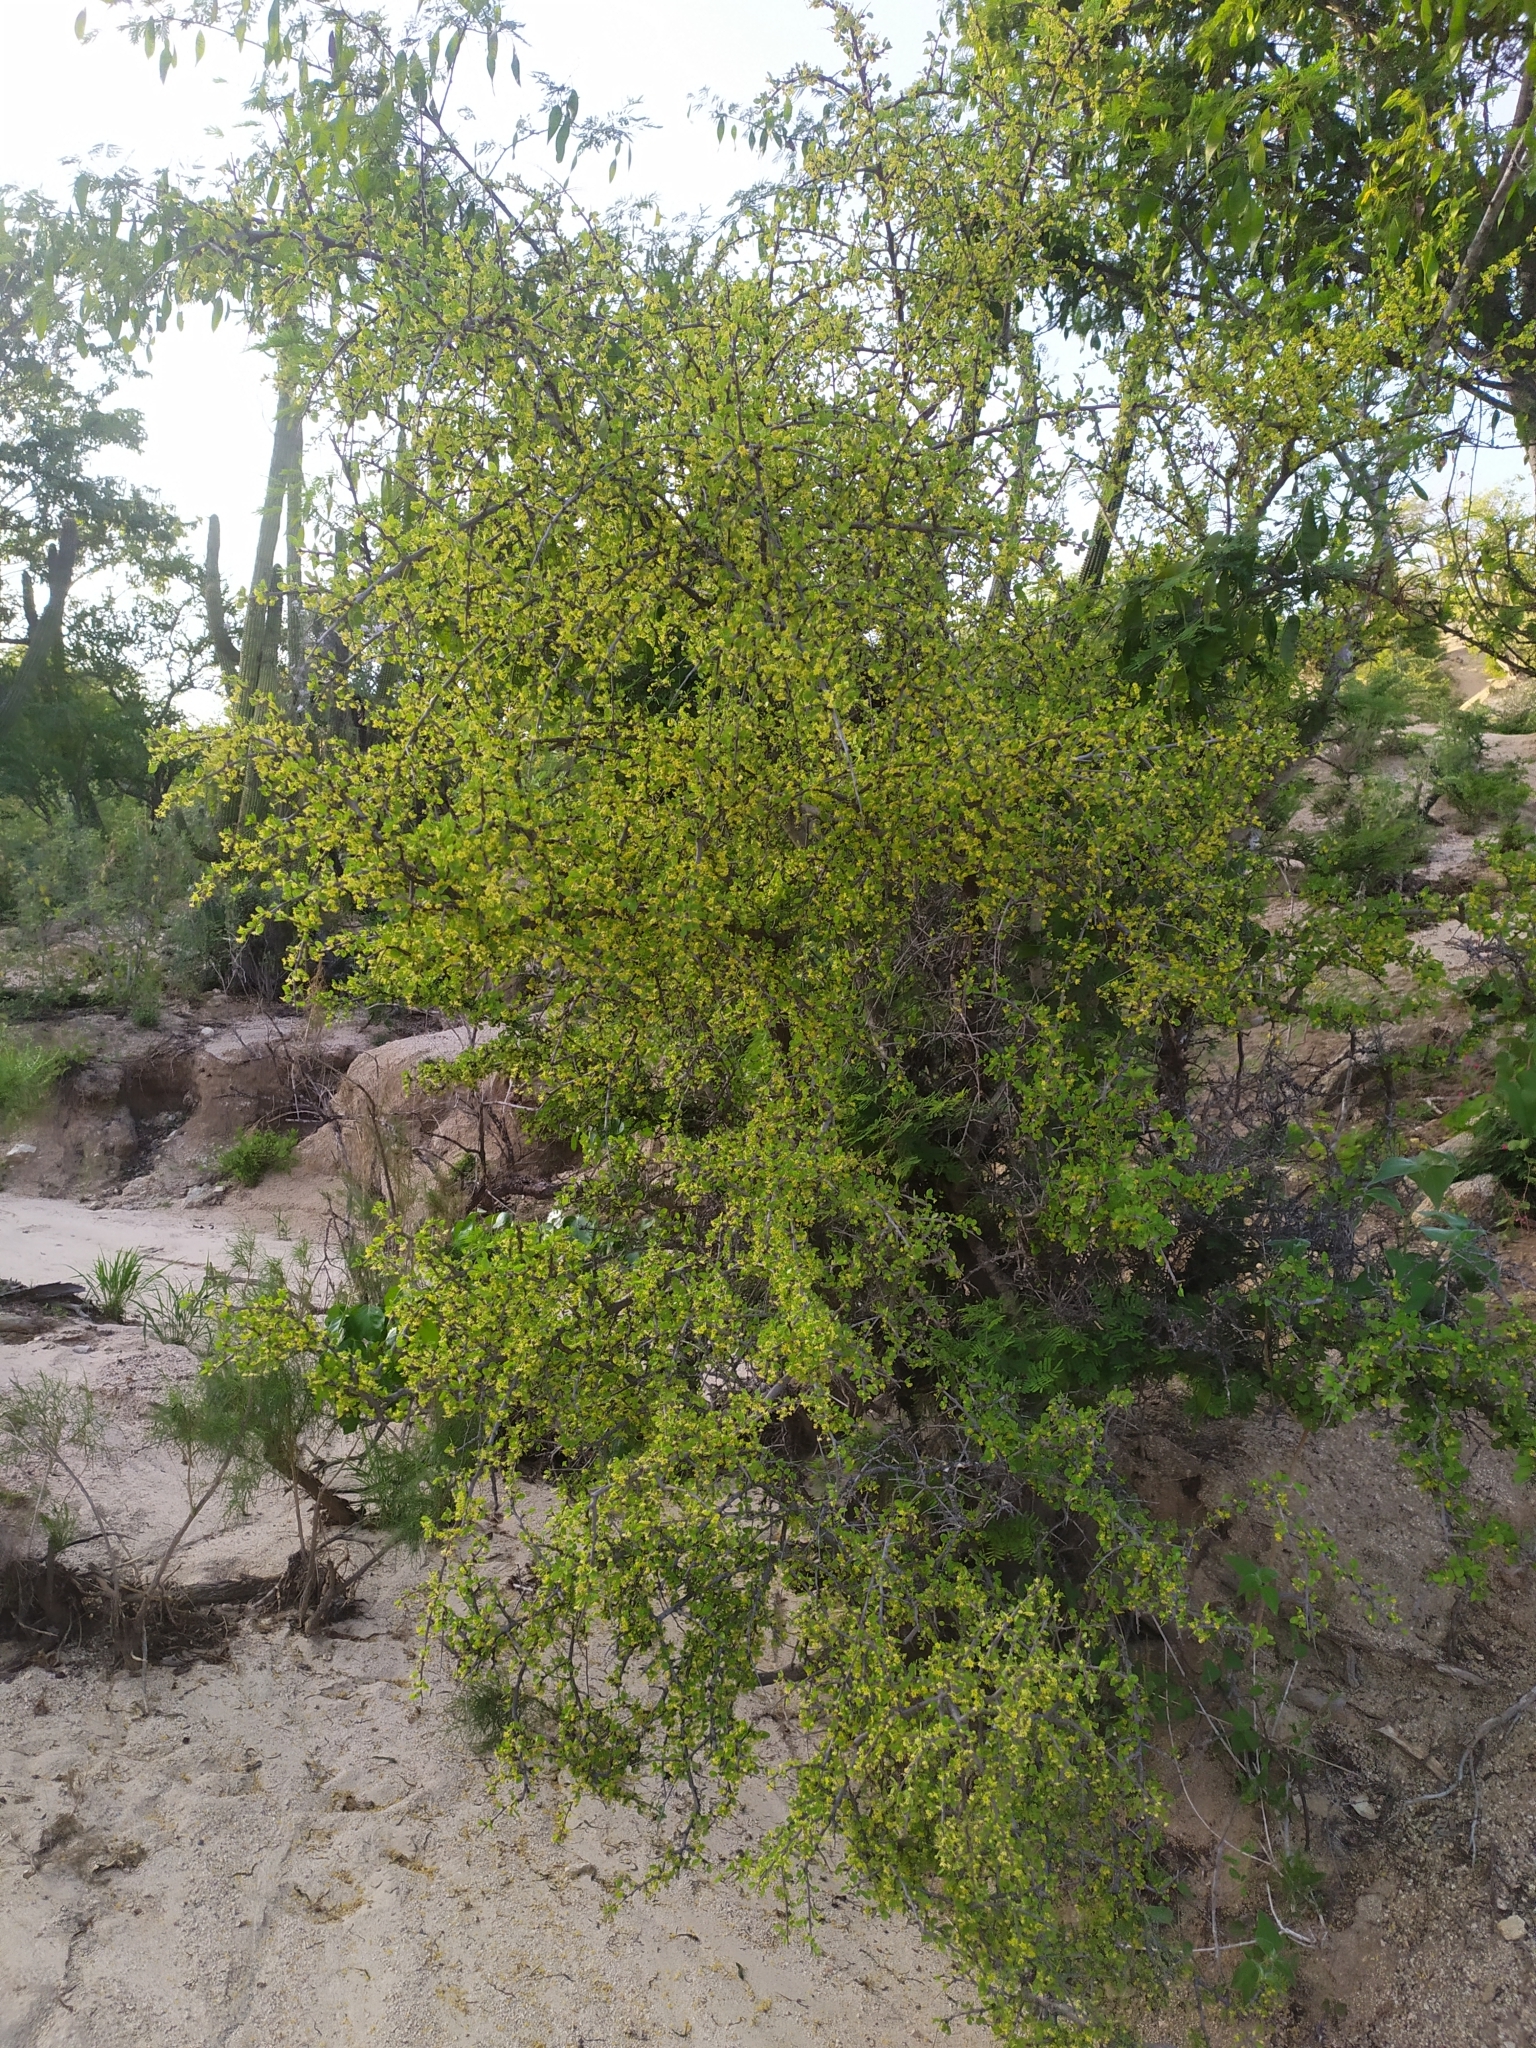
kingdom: Plantae
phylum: Tracheophyta
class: Magnoliopsida
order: Rosales
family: Rhamnaceae
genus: Colubrina
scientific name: Colubrina viridis
